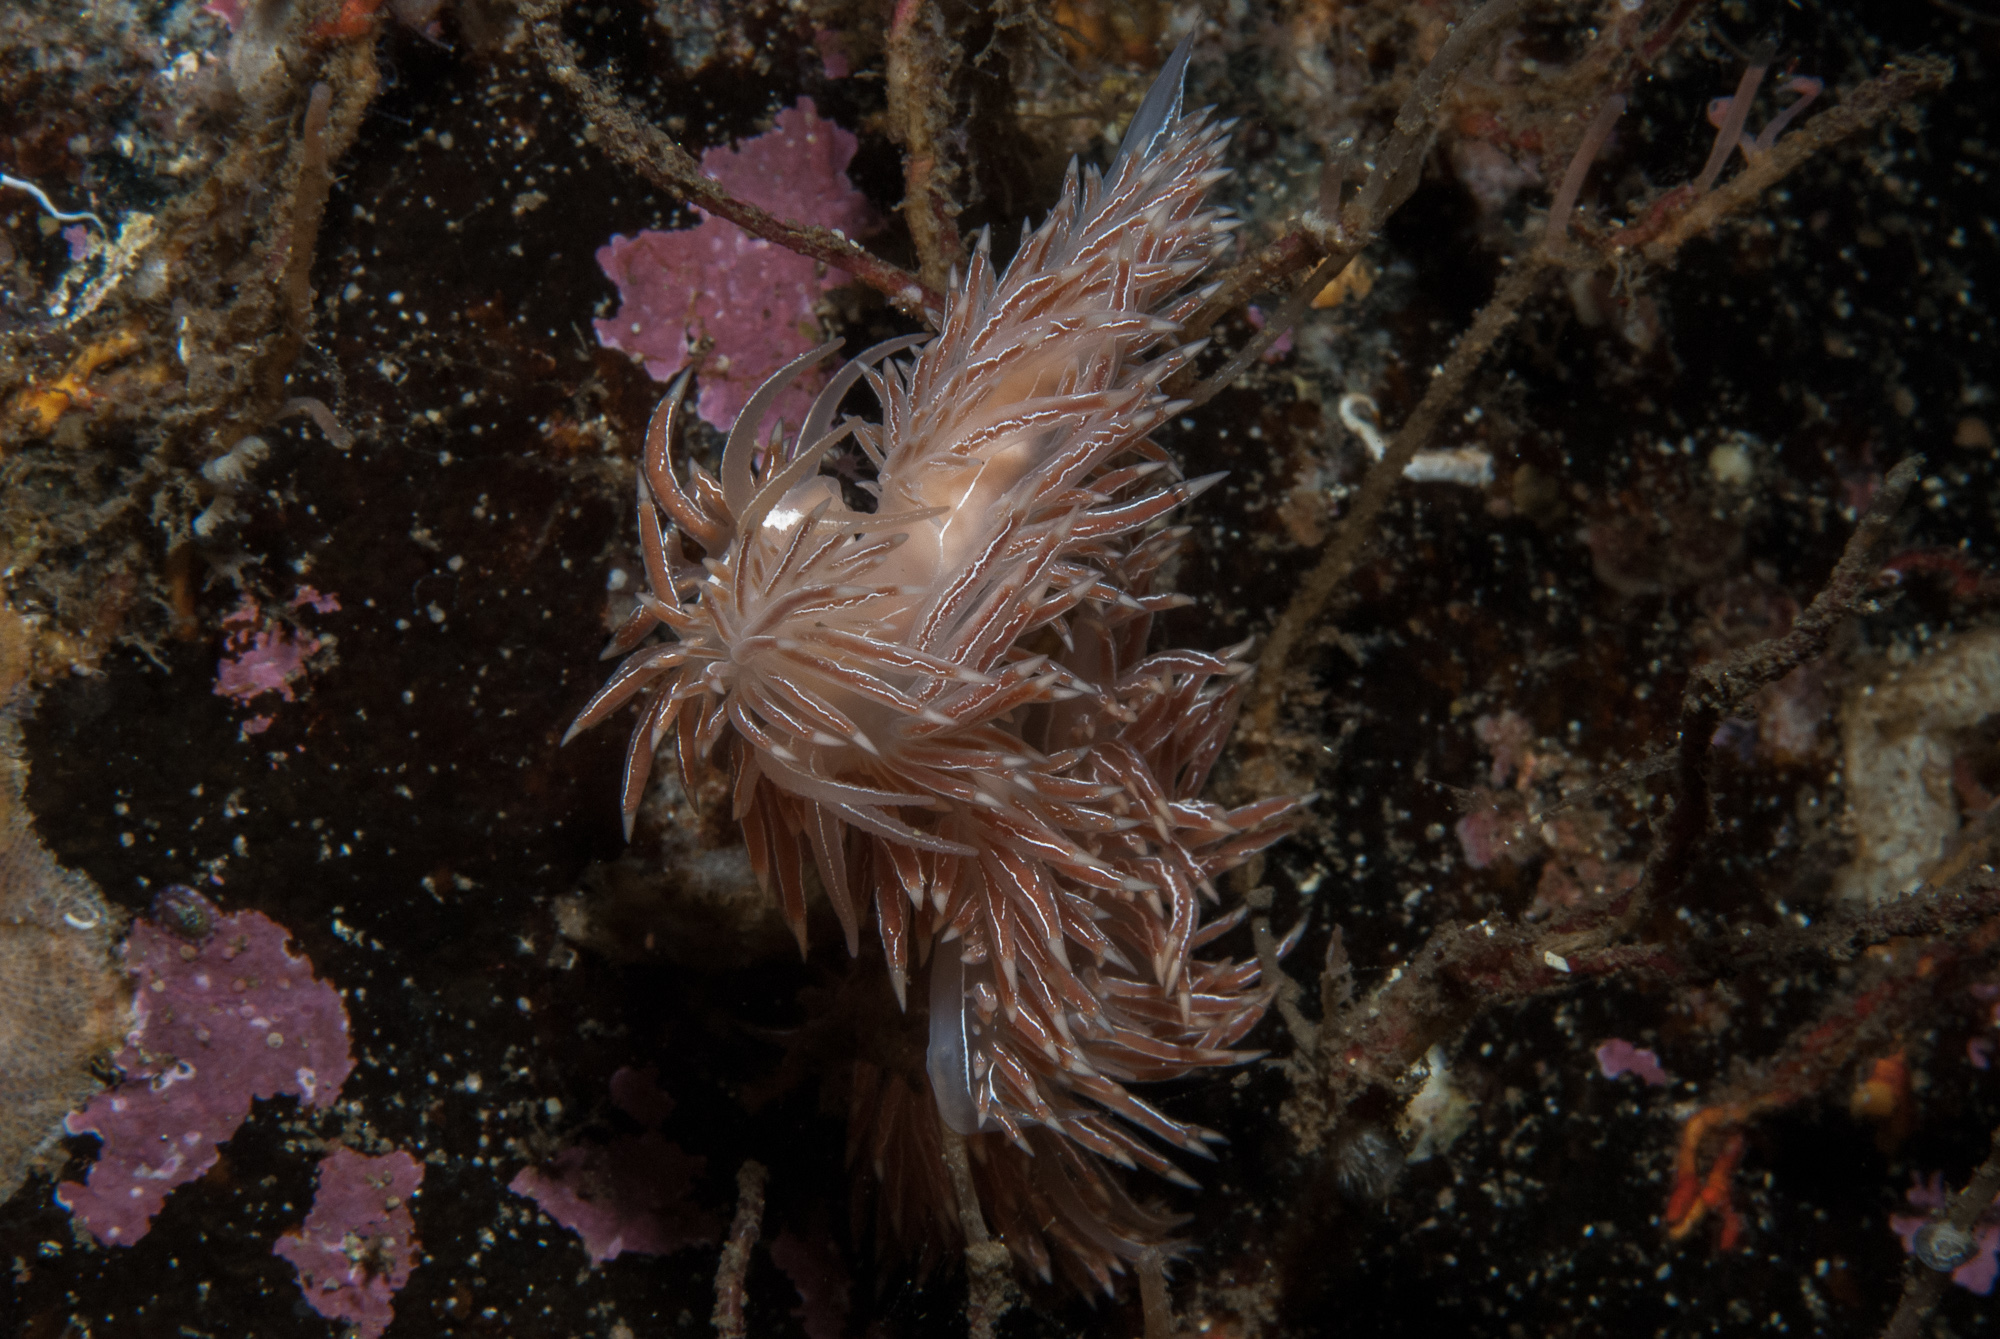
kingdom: Animalia
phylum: Mollusca
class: Gastropoda
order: Nudibranchia
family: Coryphellidae
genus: Coryphella
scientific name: Coryphella chriskaugei
